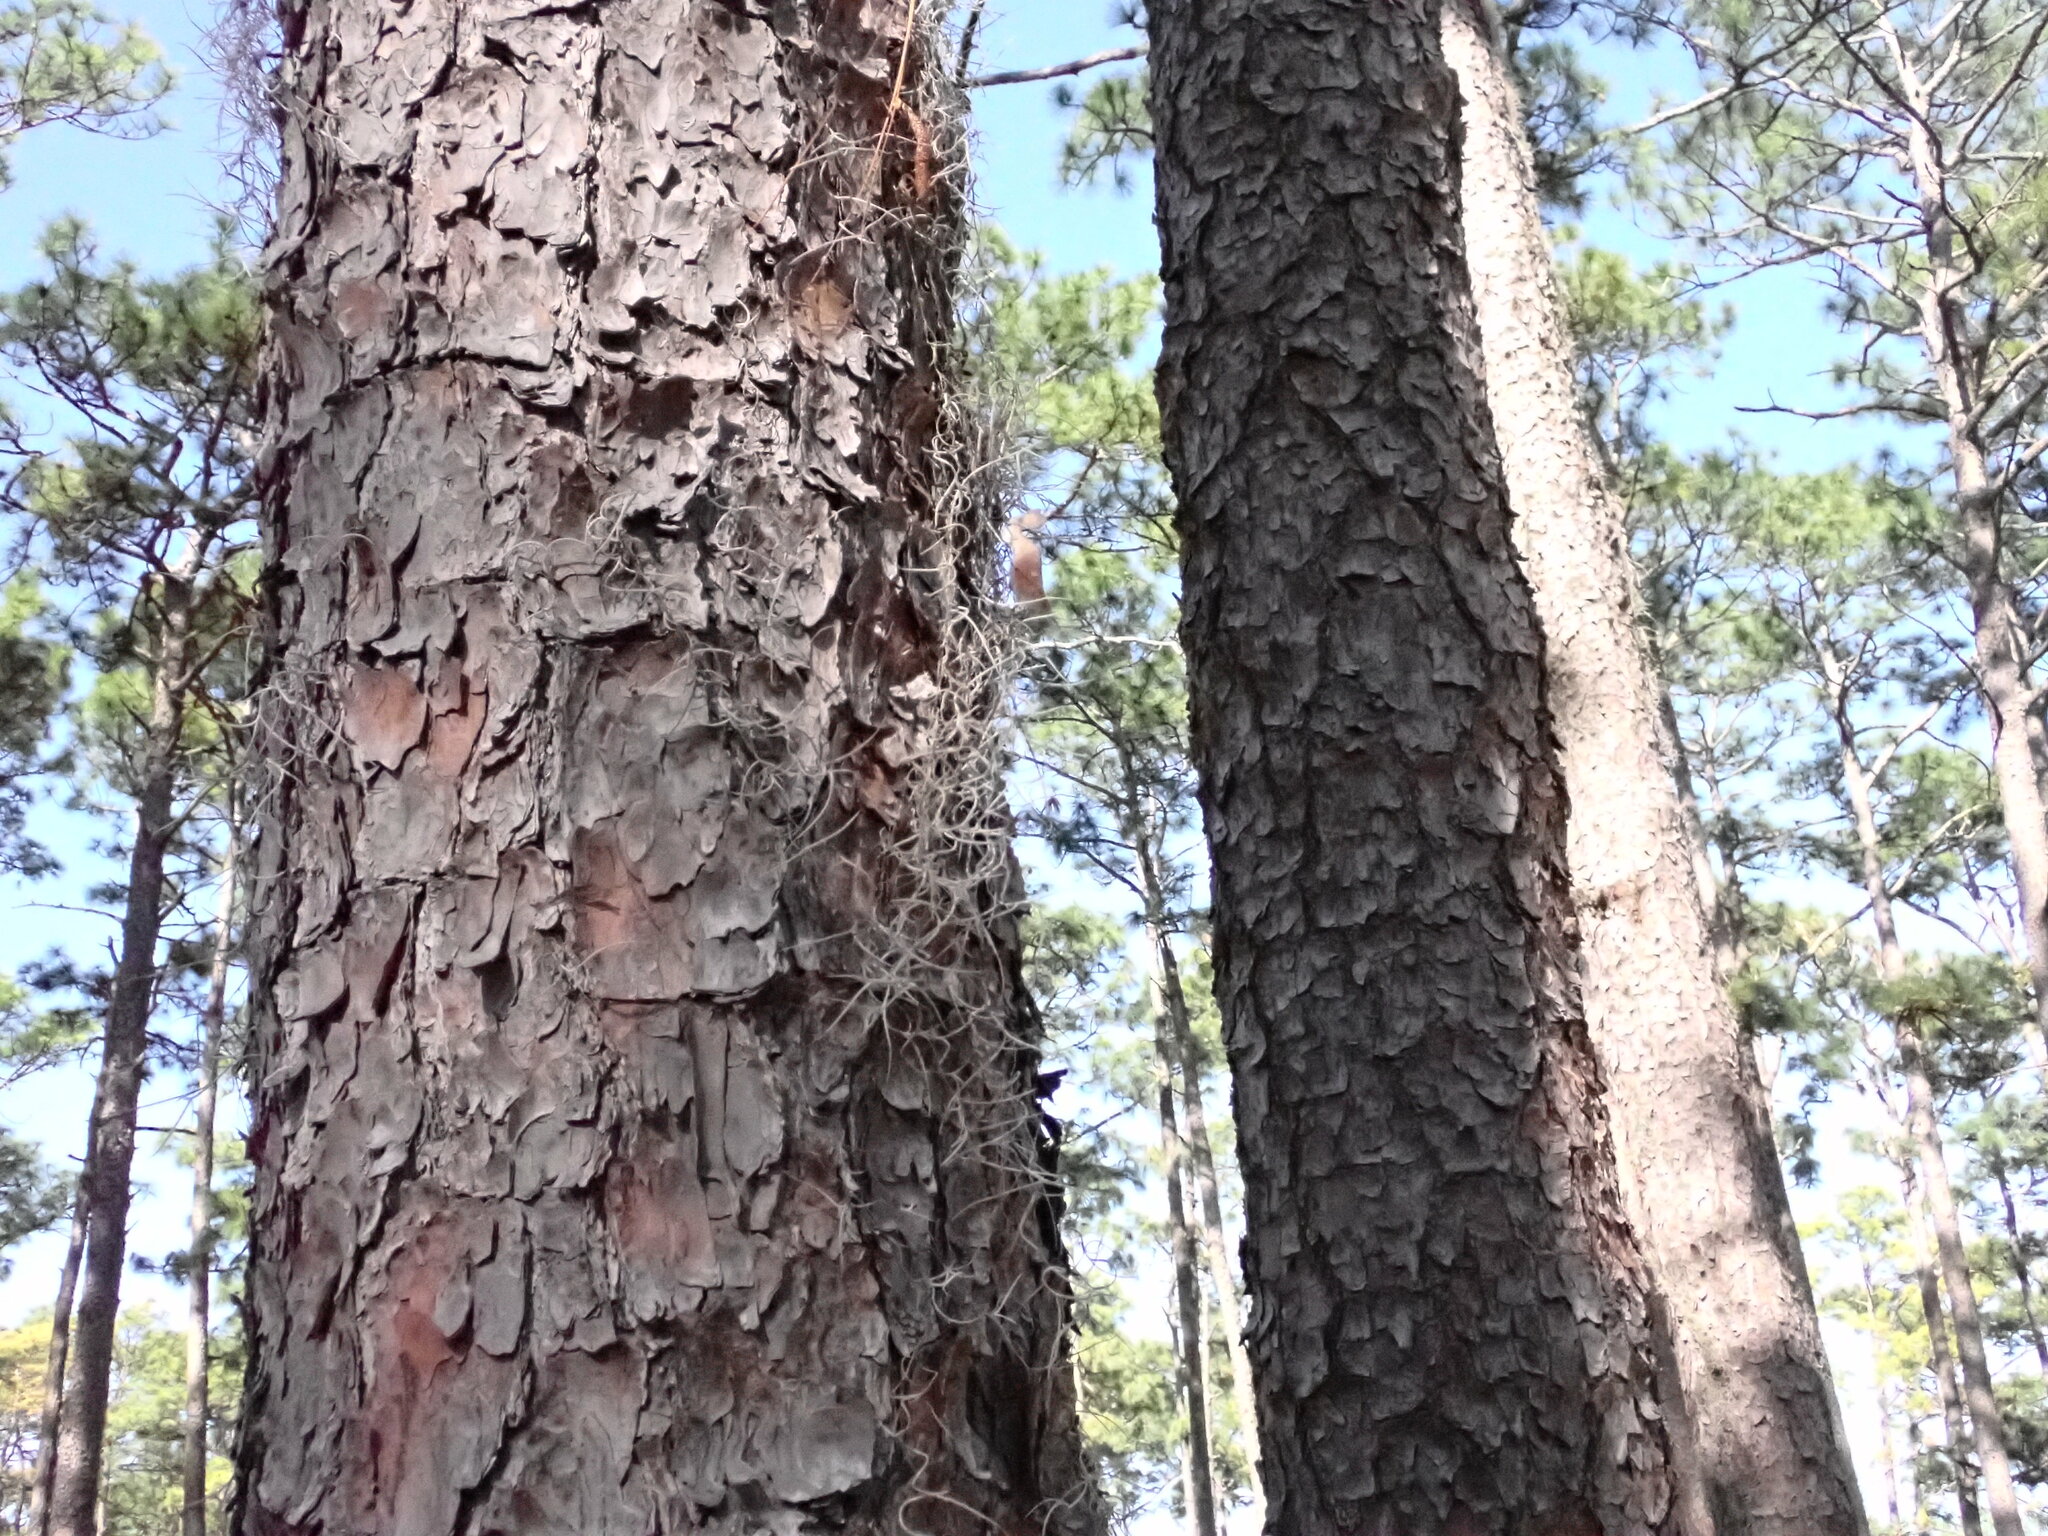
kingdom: Plantae
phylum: Tracheophyta
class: Liliopsida
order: Poales
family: Bromeliaceae
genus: Tillandsia
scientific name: Tillandsia usneoides
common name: Spanish moss
